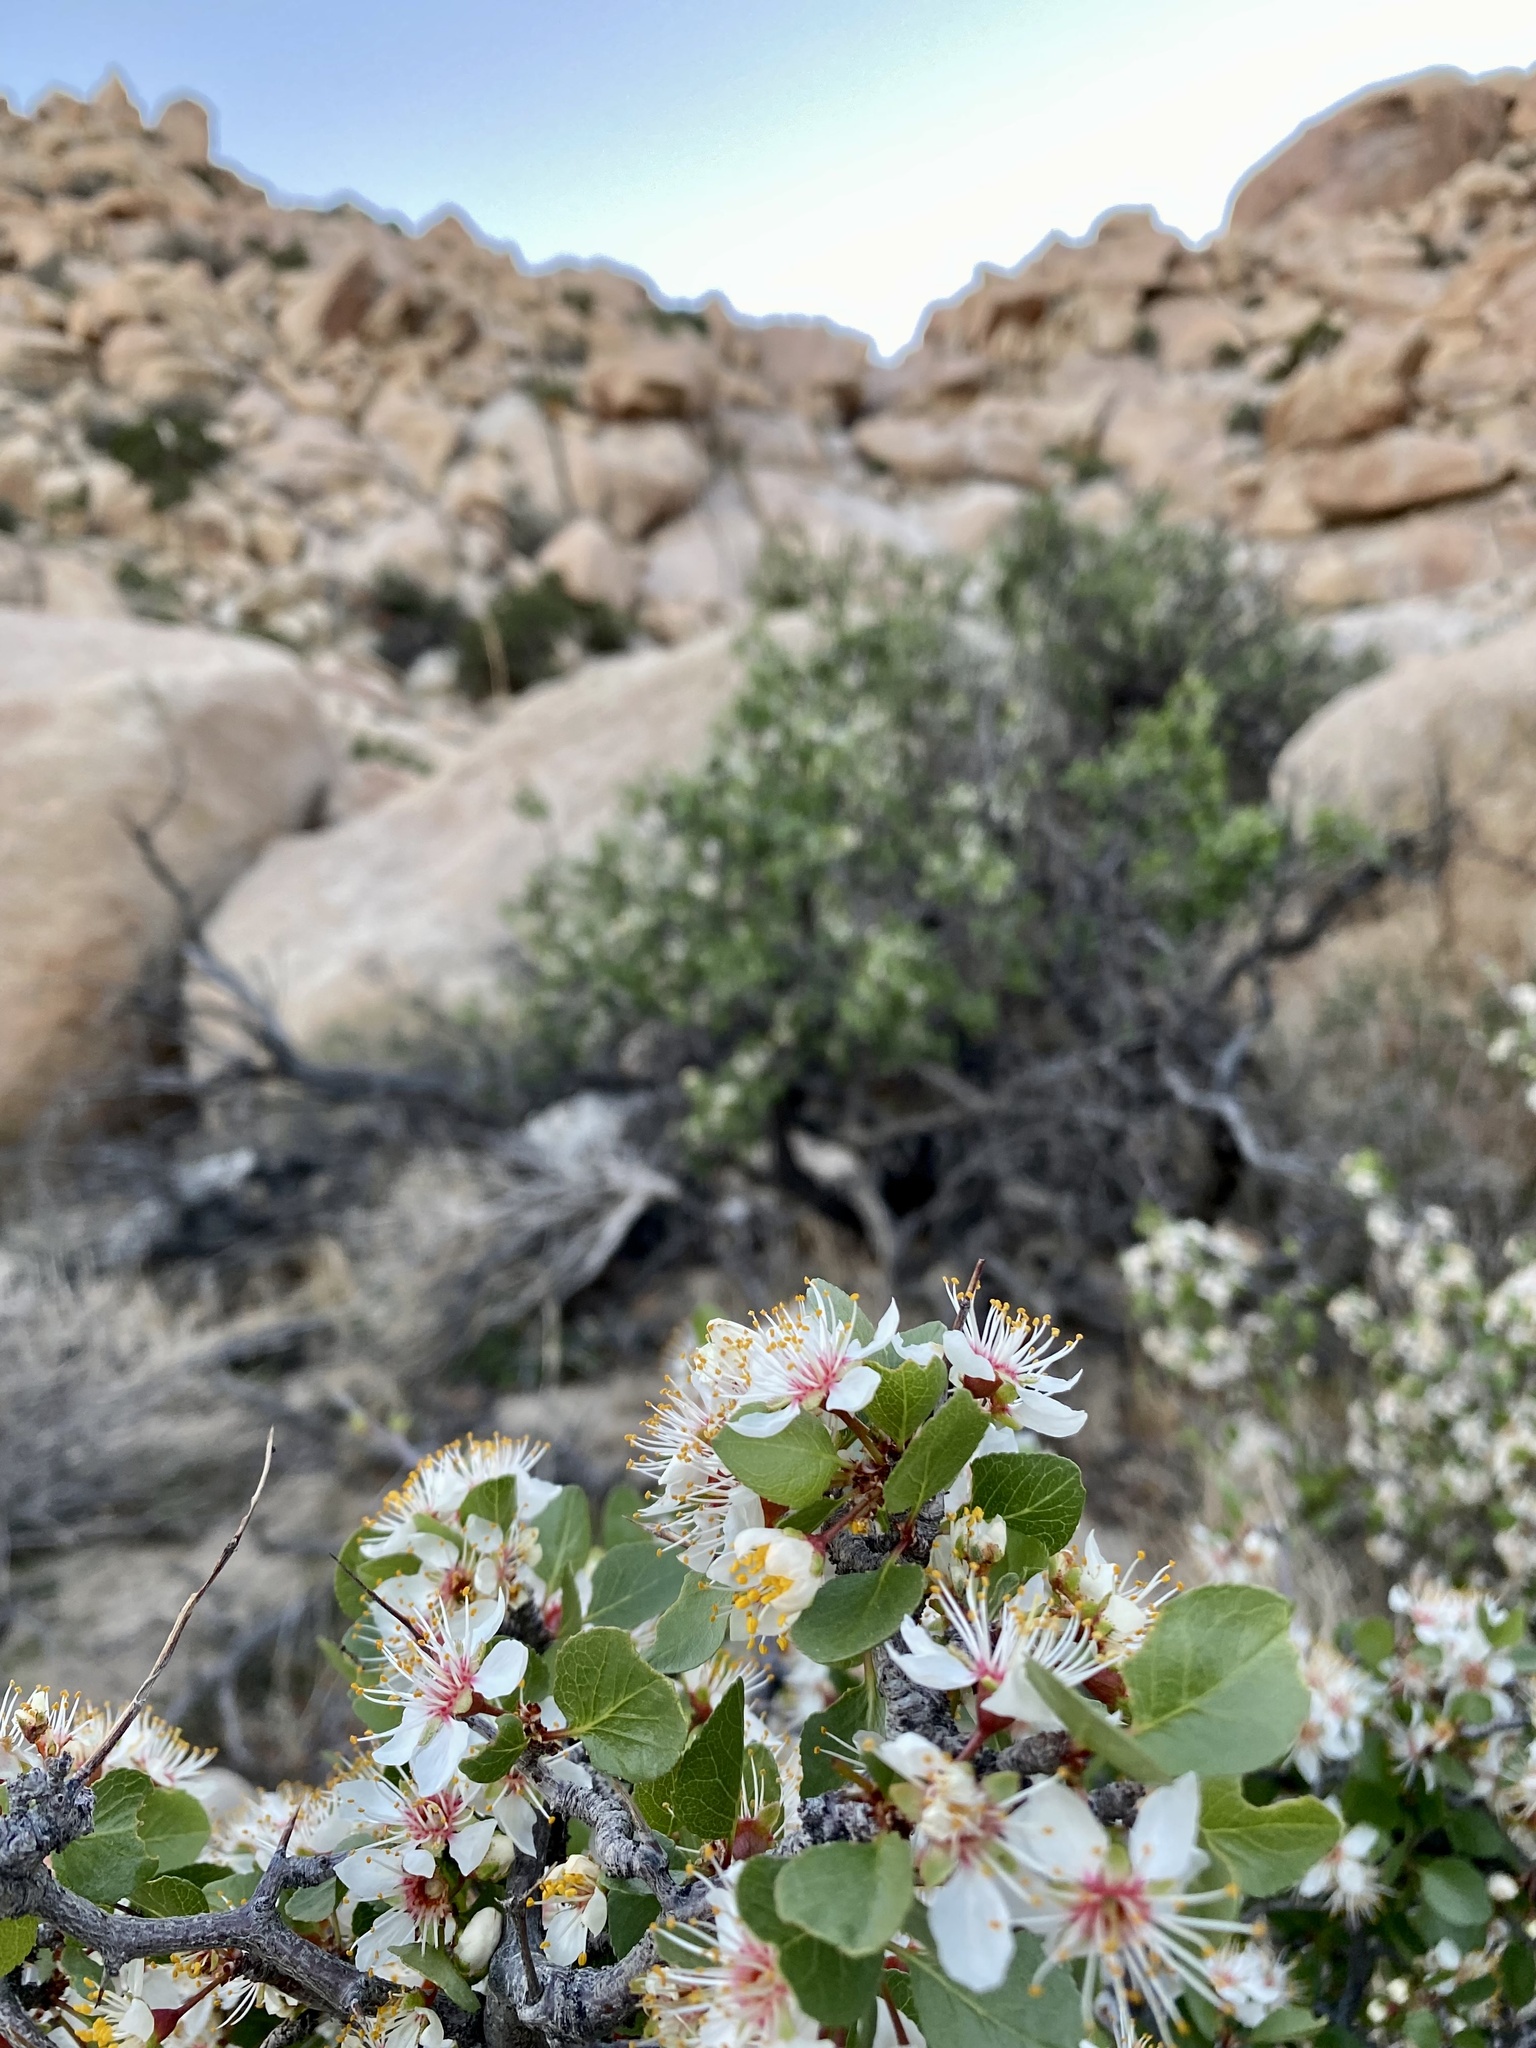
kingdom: Plantae
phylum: Tracheophyta
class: Magnoliopsida
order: Rosales
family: Rosaceae
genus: Prunus
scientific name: Prunus fremontii
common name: Desert apricot
